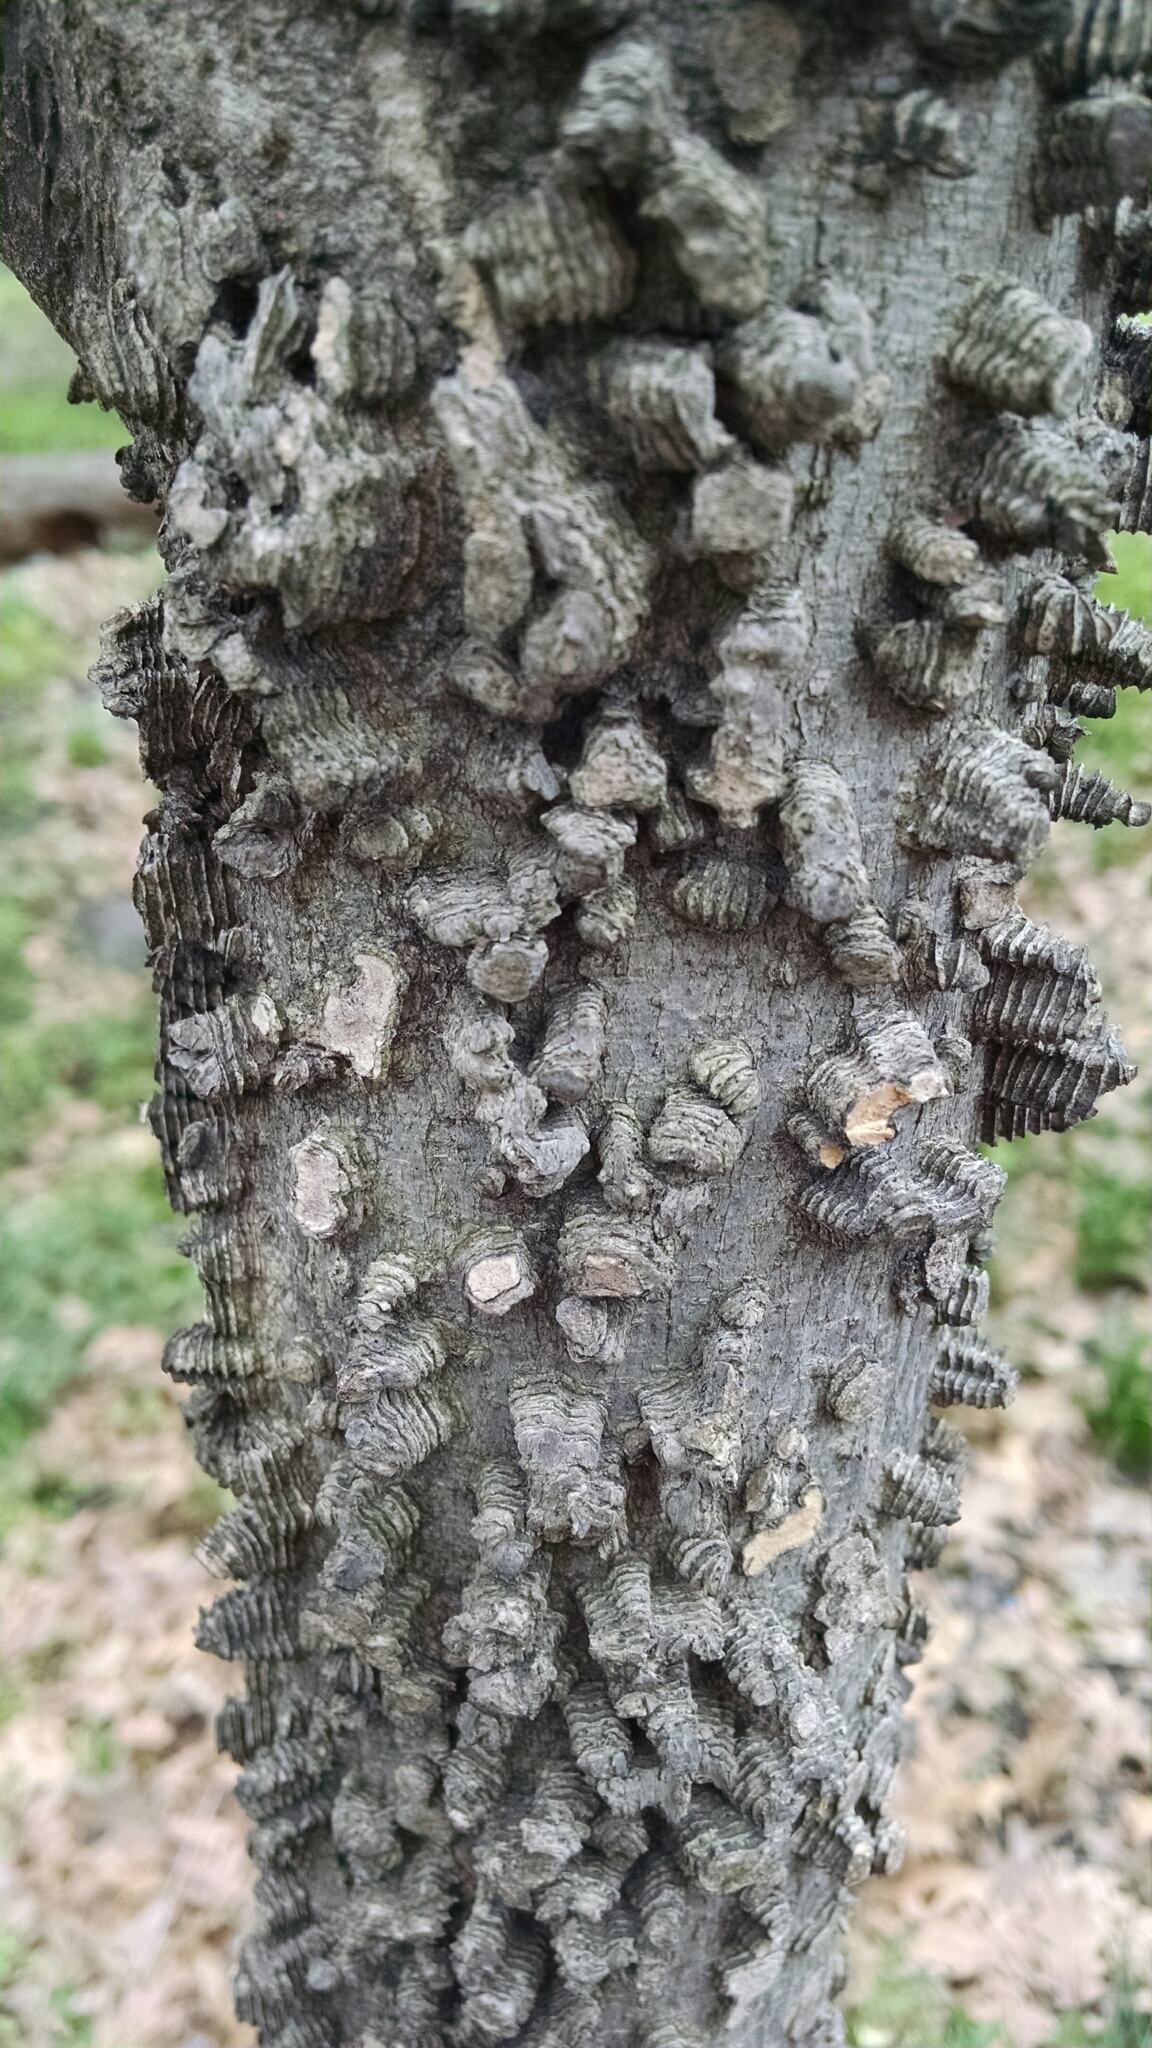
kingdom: Plantae
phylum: Tracheophyta
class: Magnoliopsida
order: Rosales
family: Cannabaceae
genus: Celtis
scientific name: Celtis occidentalis
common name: Common hackberry
